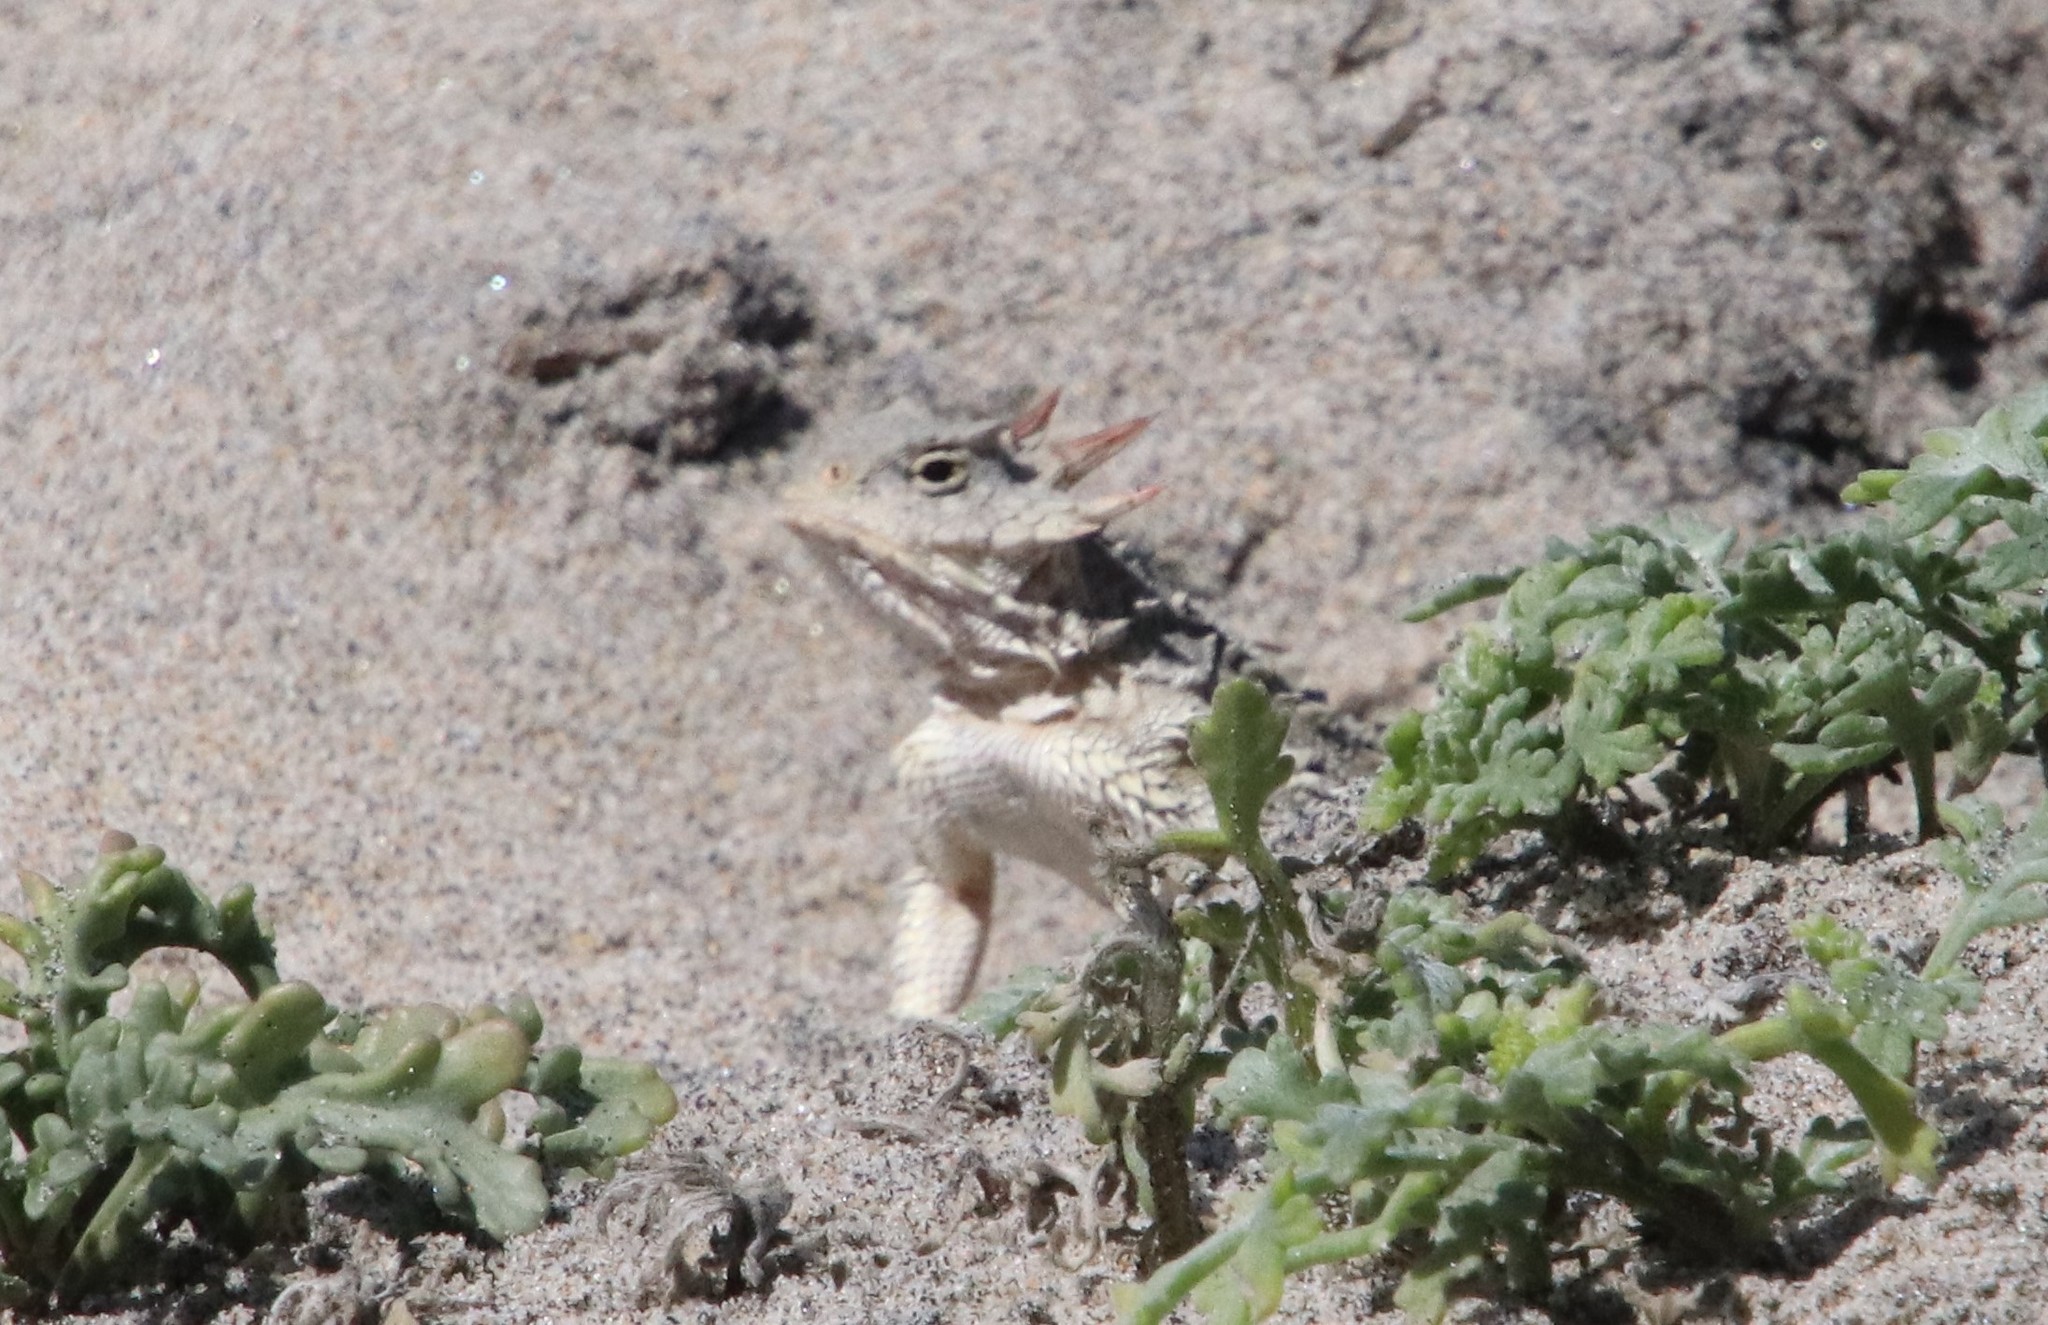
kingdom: Animalia
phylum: Chordata
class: Squamata
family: Phrynosomatidae
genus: Phrynosoma
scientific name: Phrynosoma blainvillii
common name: San diego horned lizard
